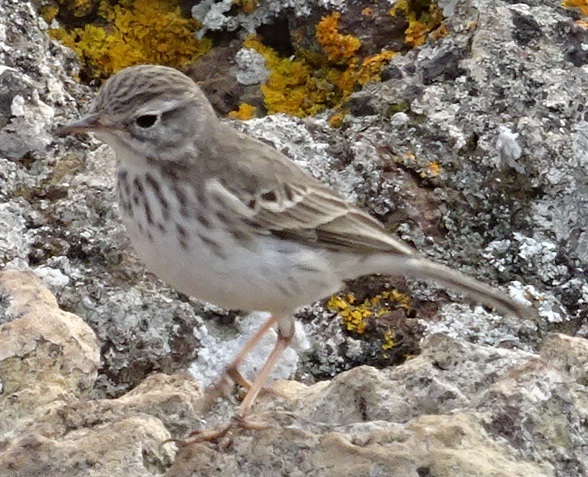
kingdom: Animalia
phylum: Chordata
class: Aves
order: Passeriformes
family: Motacillidae
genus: Anthus
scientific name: Anthus berthelotii
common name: Berthelot's pipit
